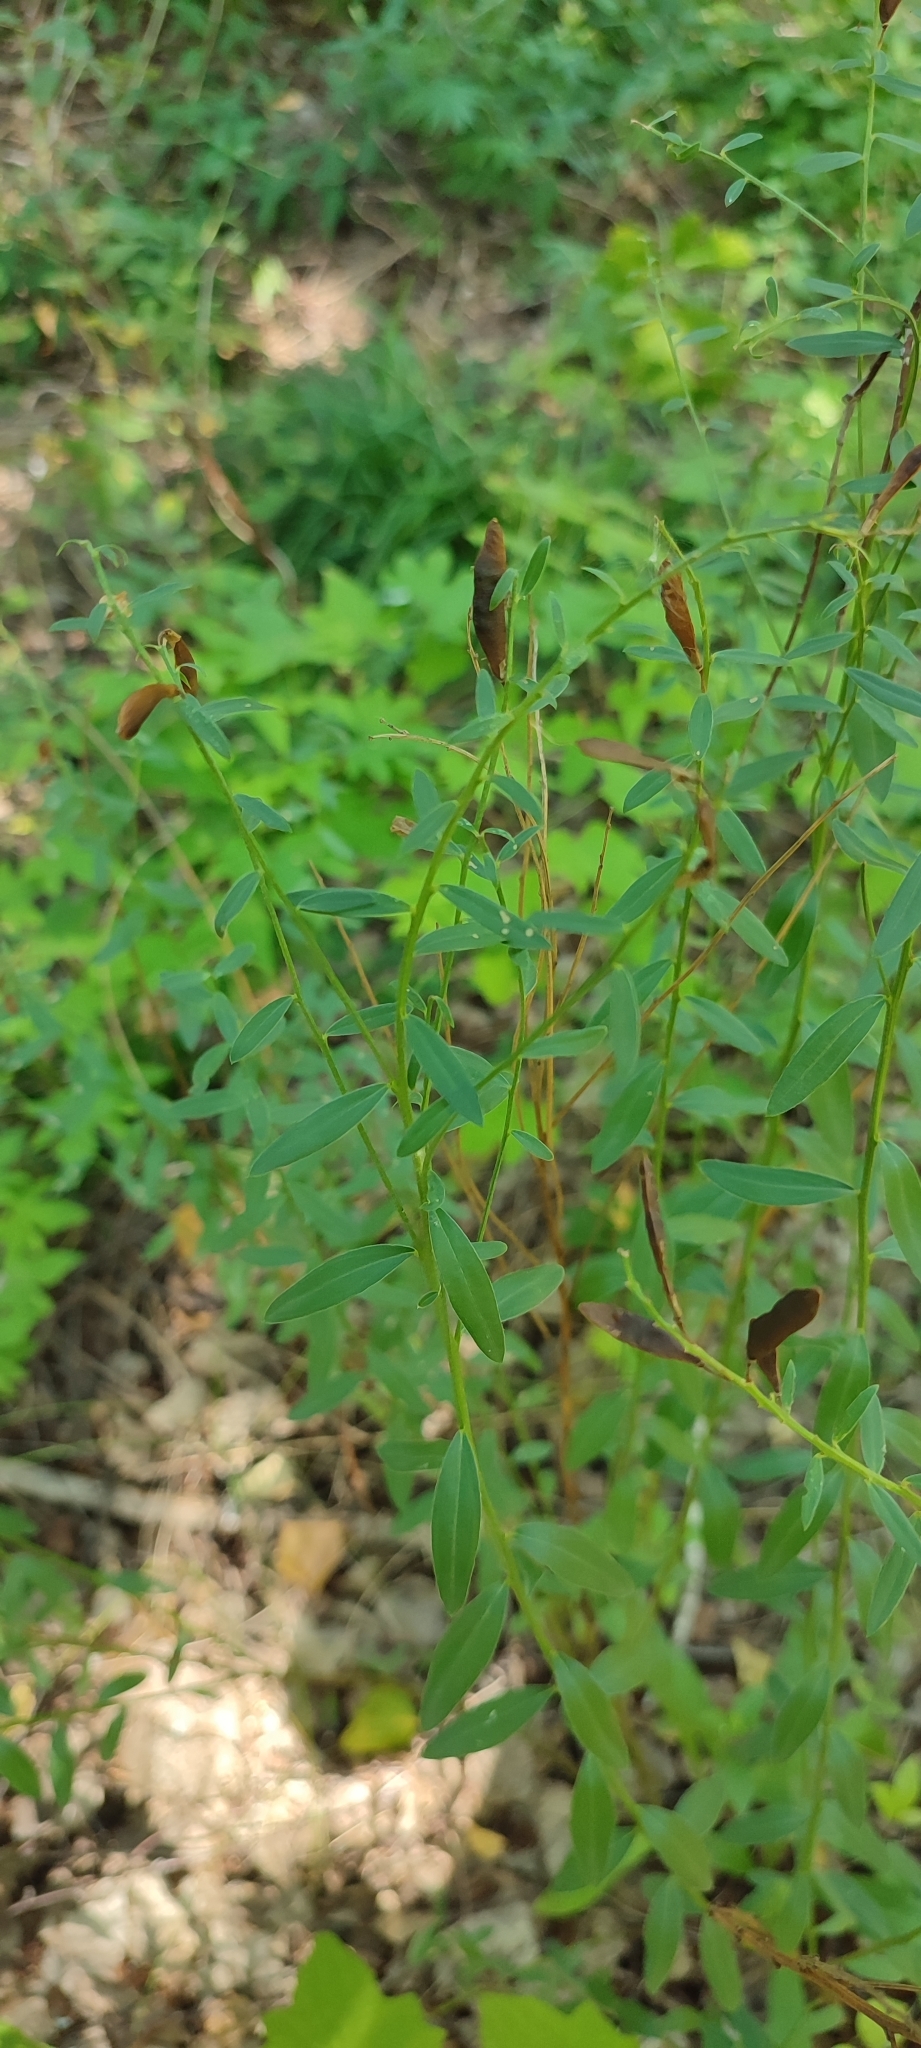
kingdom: Plantae
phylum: Tracheophyta
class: Magnoliopsida
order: Fabales
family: Fabaceae
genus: Genista
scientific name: Genista tinctoria
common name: Dyer's greenweed
